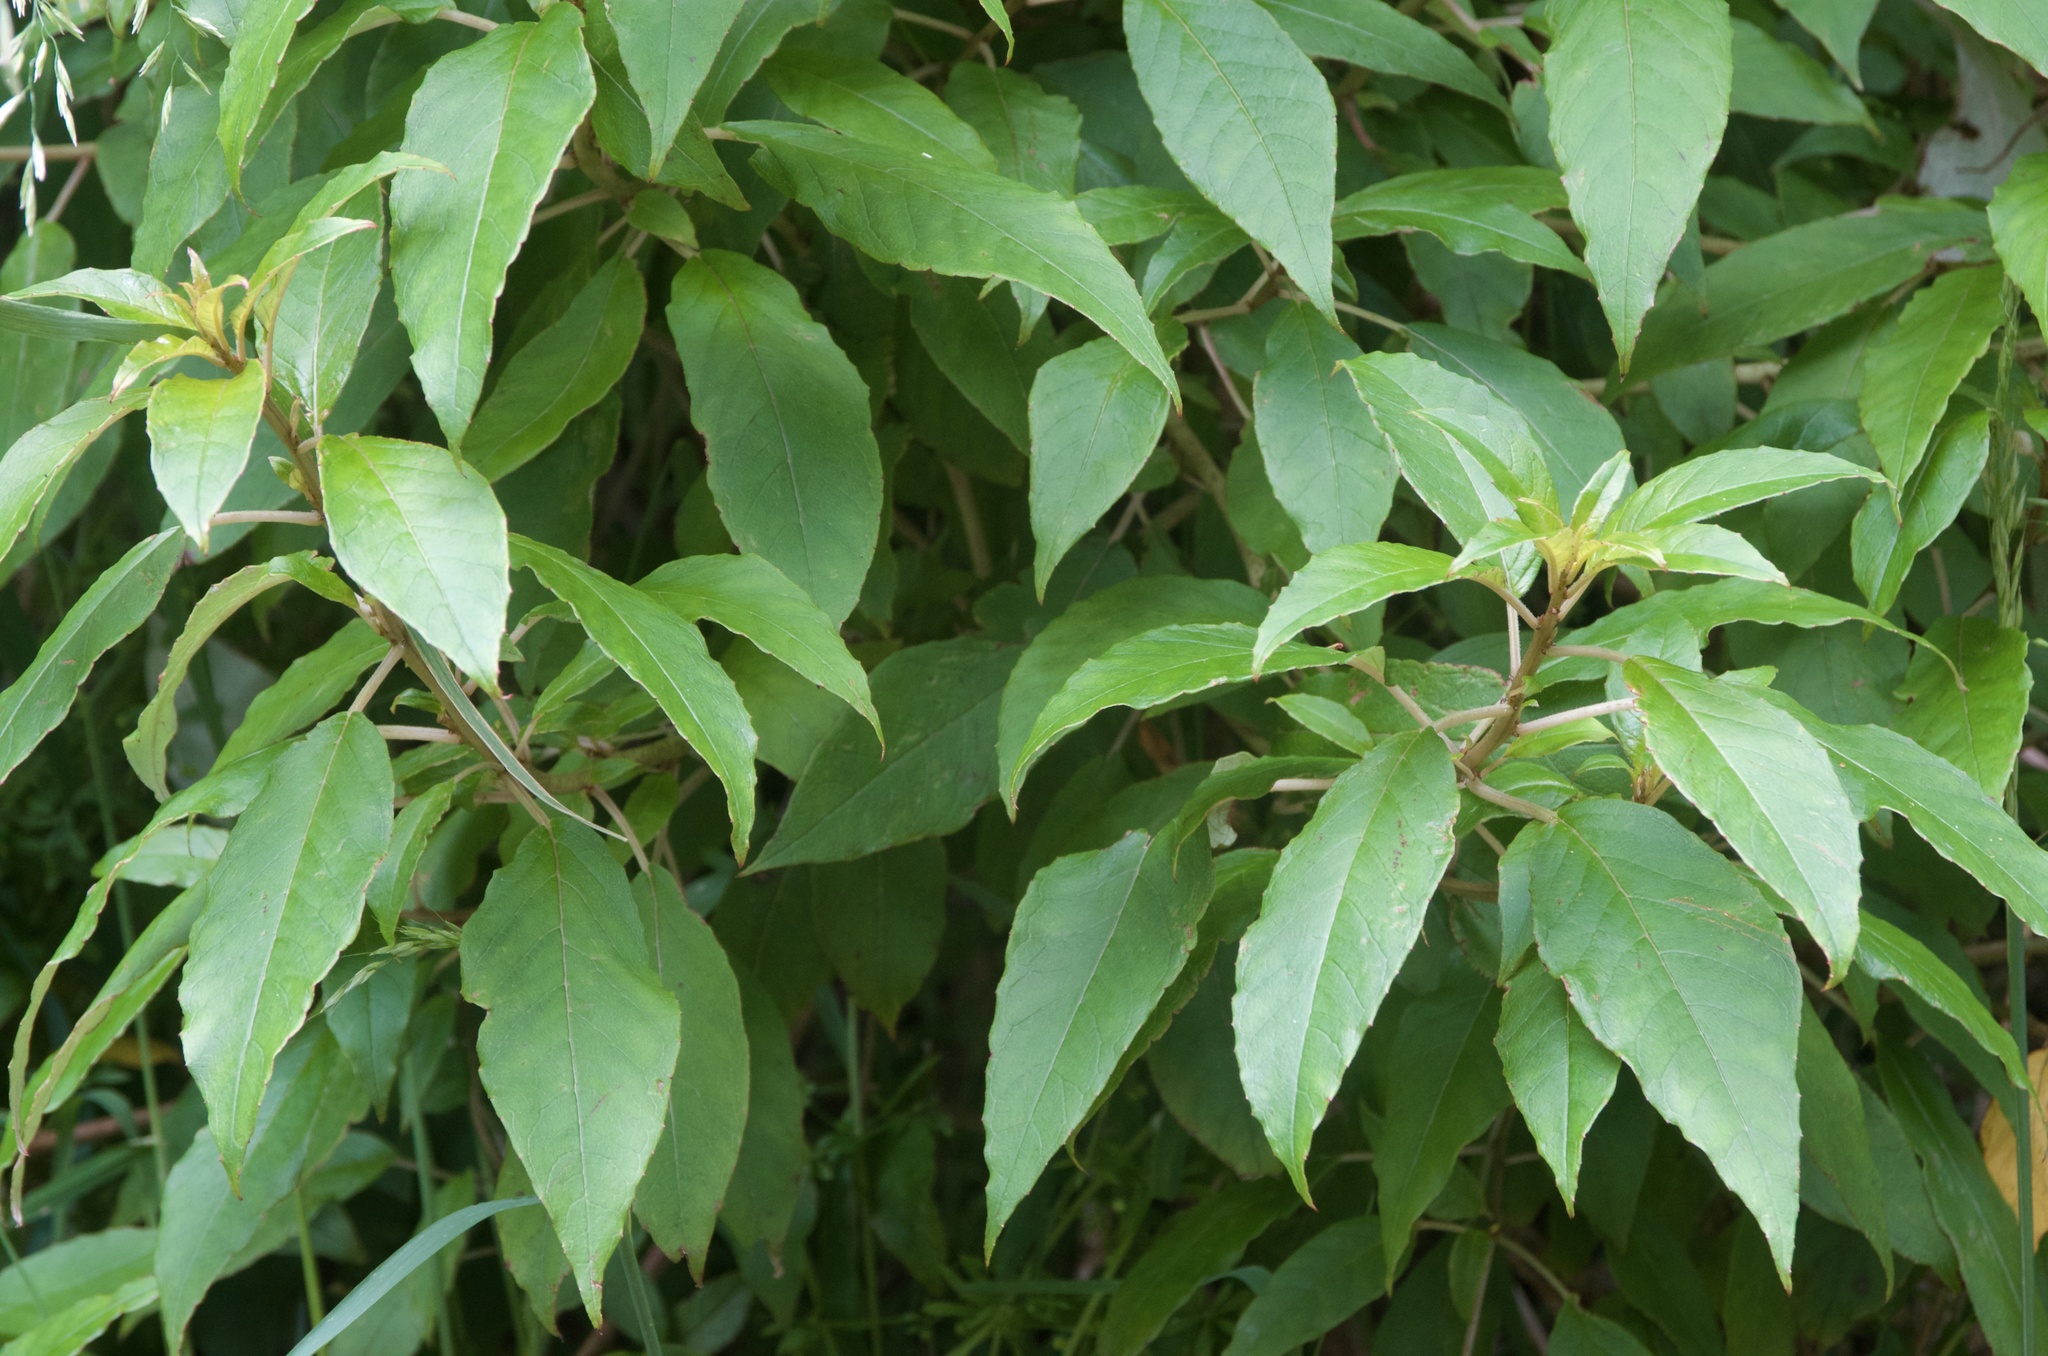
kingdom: Plantae
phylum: Tracheophyta
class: Magnoliopsida
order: Myrtales
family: Onagraceae
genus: Fuchsia
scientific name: Fuchsia excorticata
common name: Tree fuchsia
